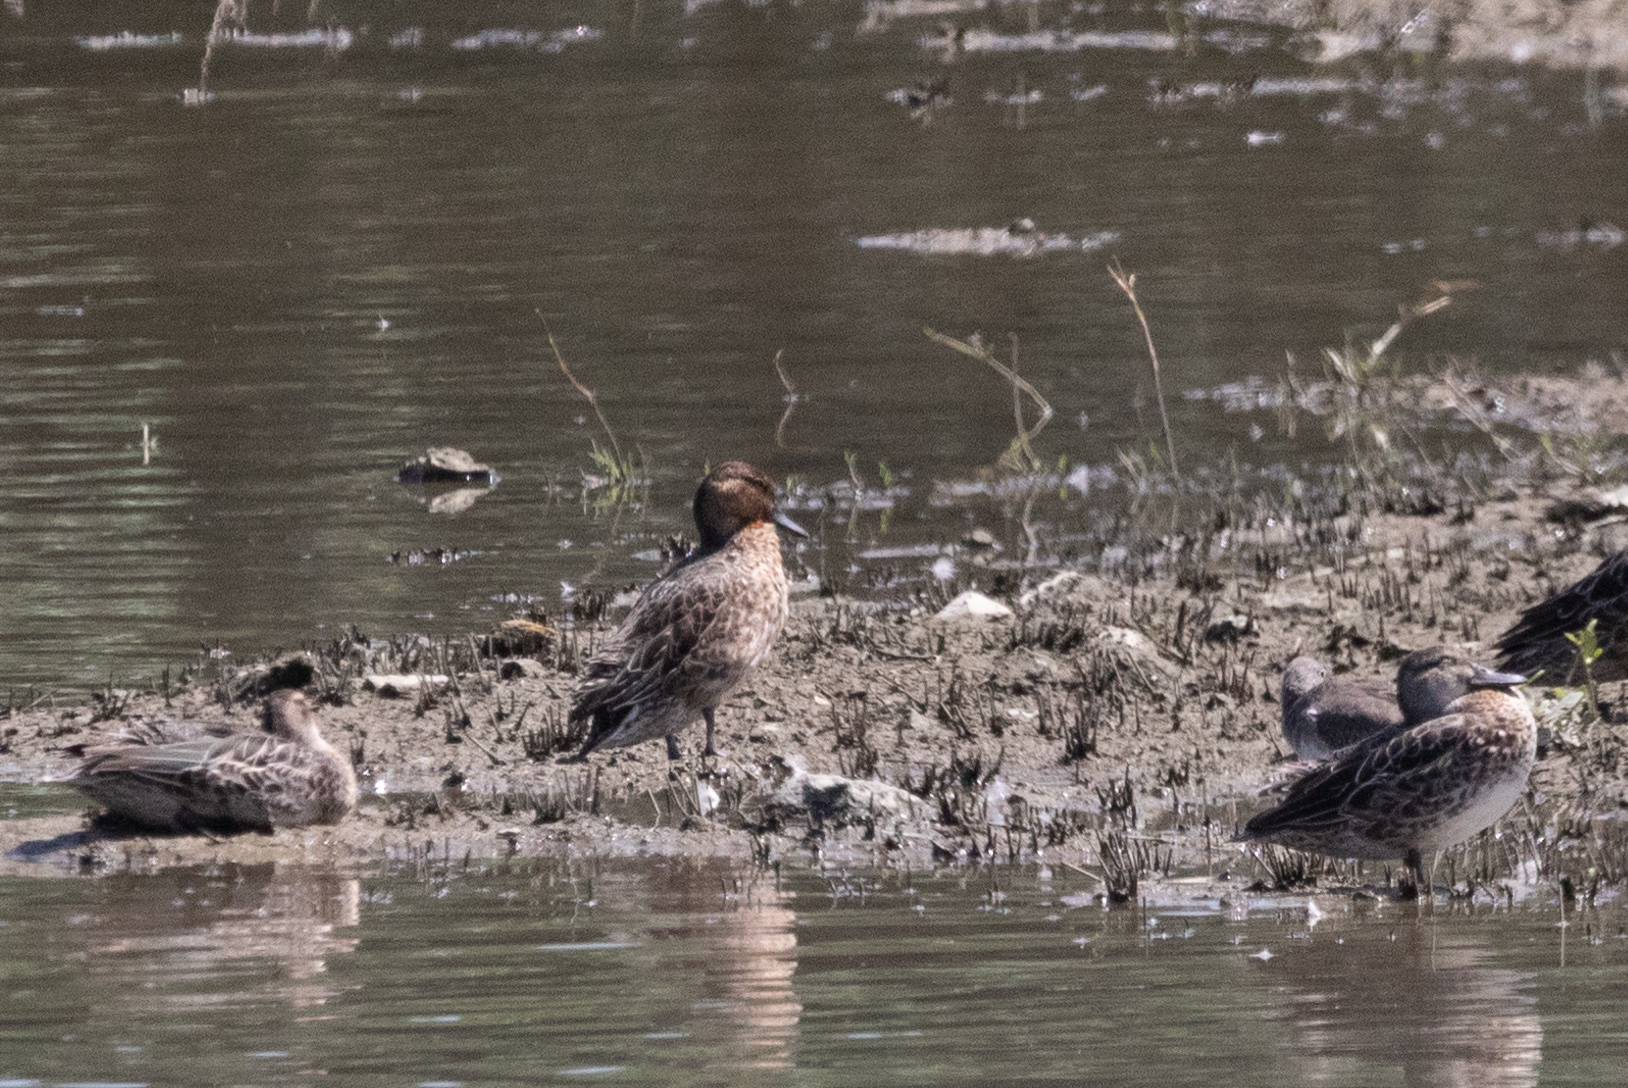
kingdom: Animalia
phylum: Chordata
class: Aves
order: Anseriformes
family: Anatidae
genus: Anas
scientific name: Anas crecca
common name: Eurasian teal
